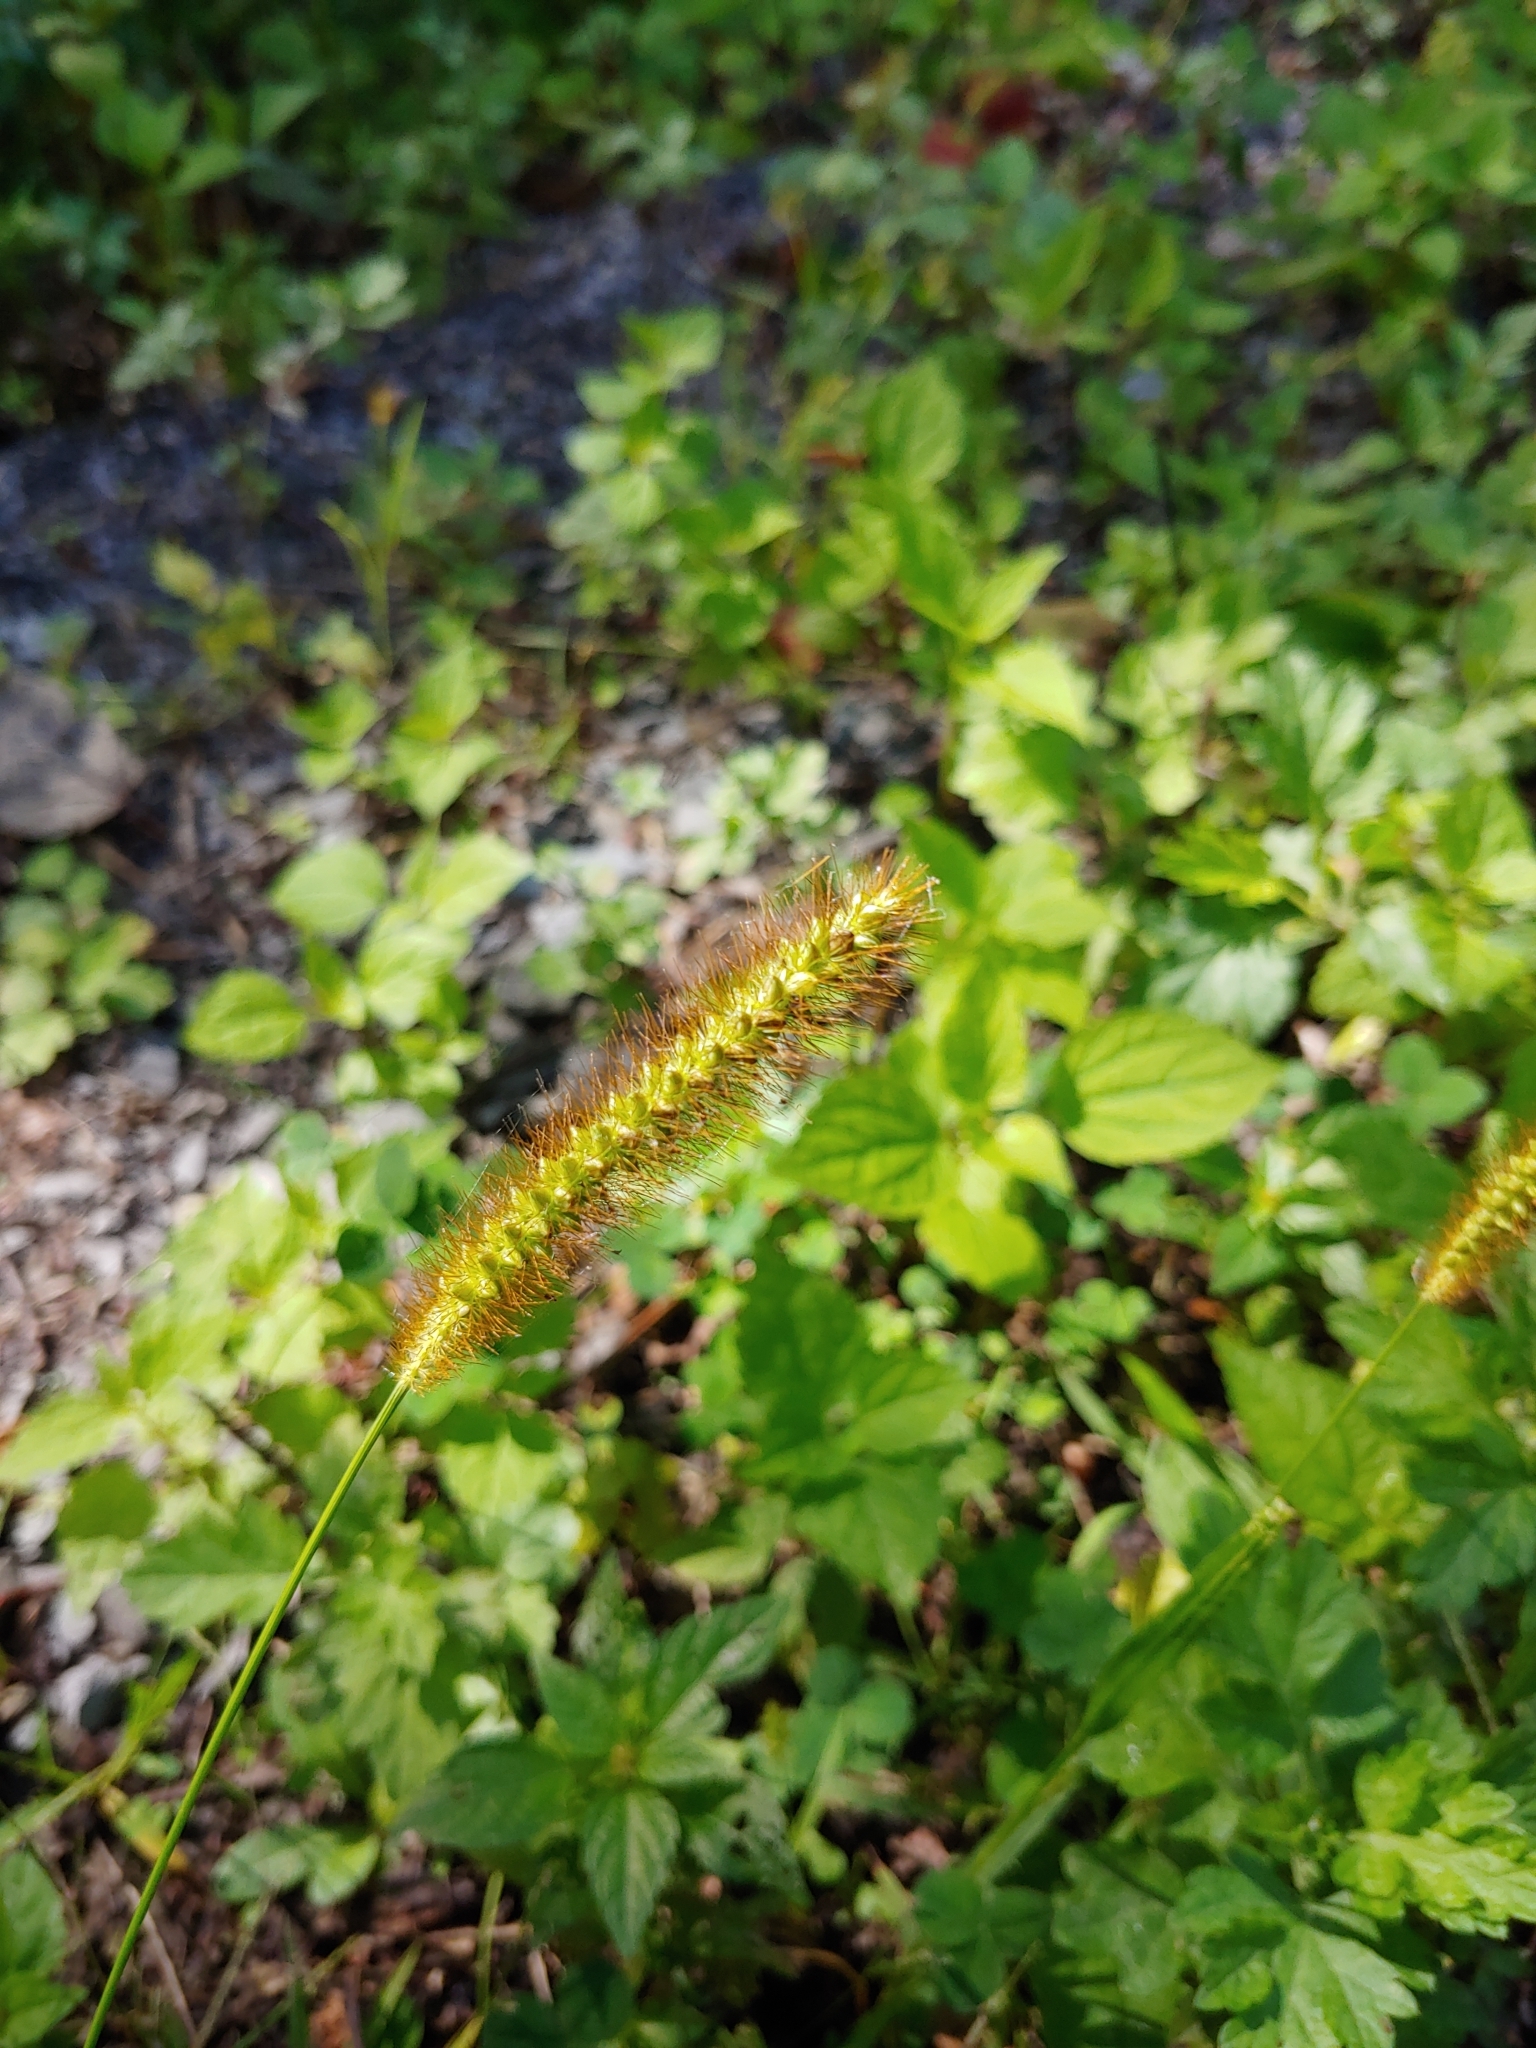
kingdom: Plantae
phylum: Tracheophyta
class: Liliopsida
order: Poales
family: Poaceae
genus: Setaria
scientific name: Setaria pumila
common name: Yellow bristle-grass
